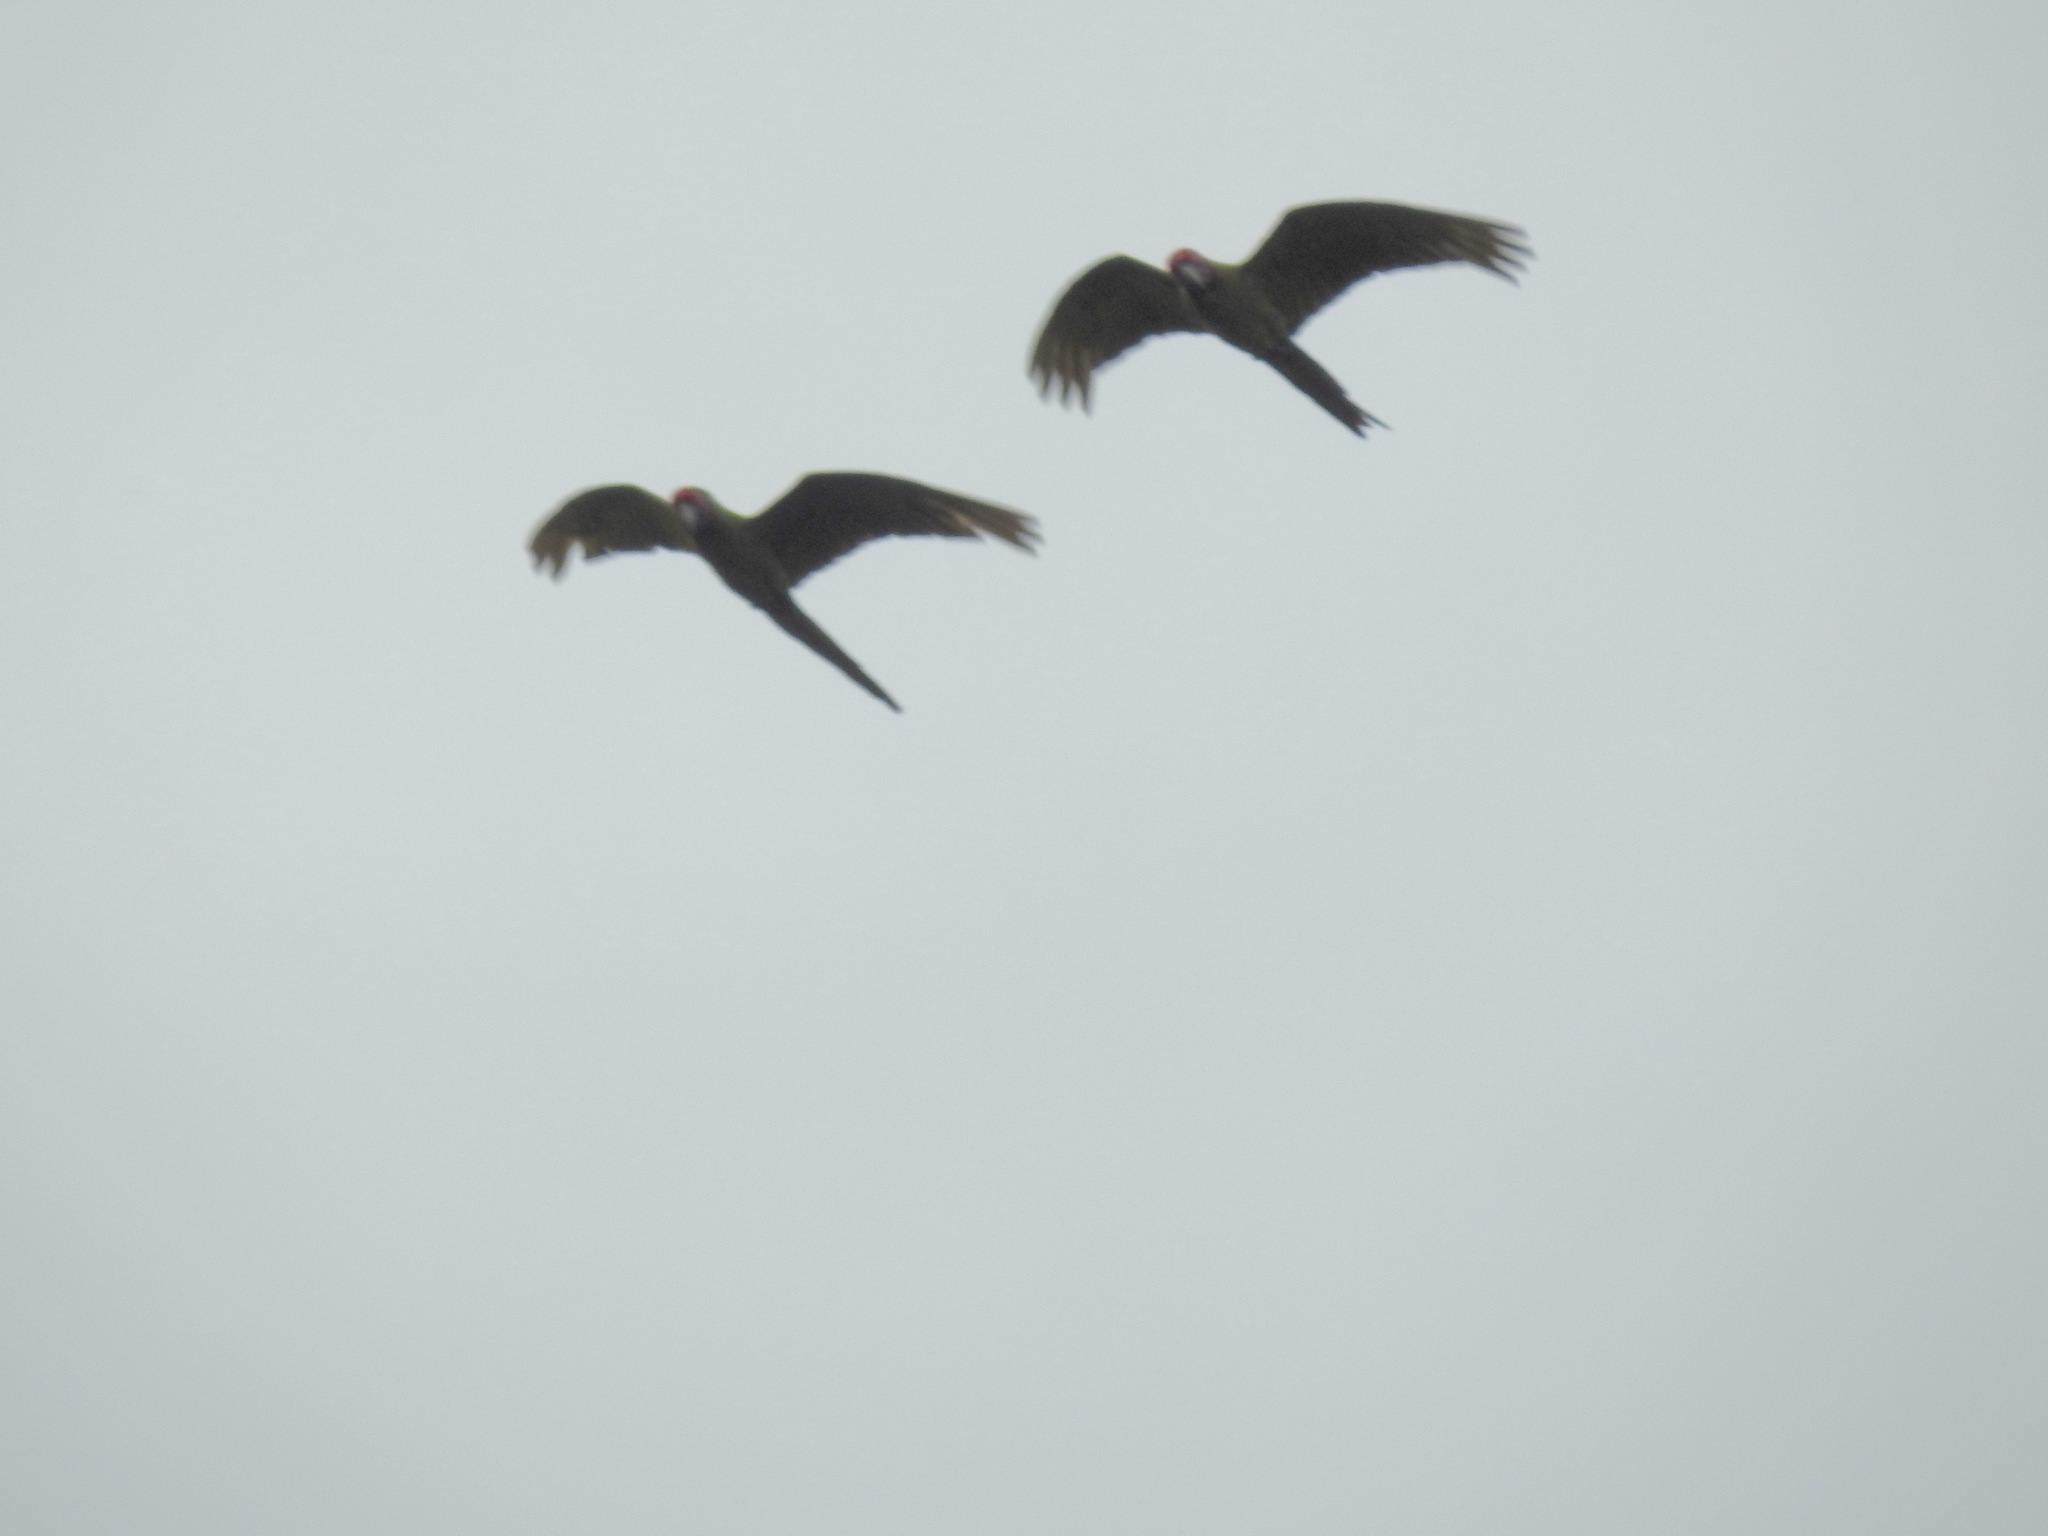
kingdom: Animalia
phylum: Chordata
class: Aves
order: Psittaciformes
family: Psittacidae
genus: Ara
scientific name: Ara militaris
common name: Military macaw
